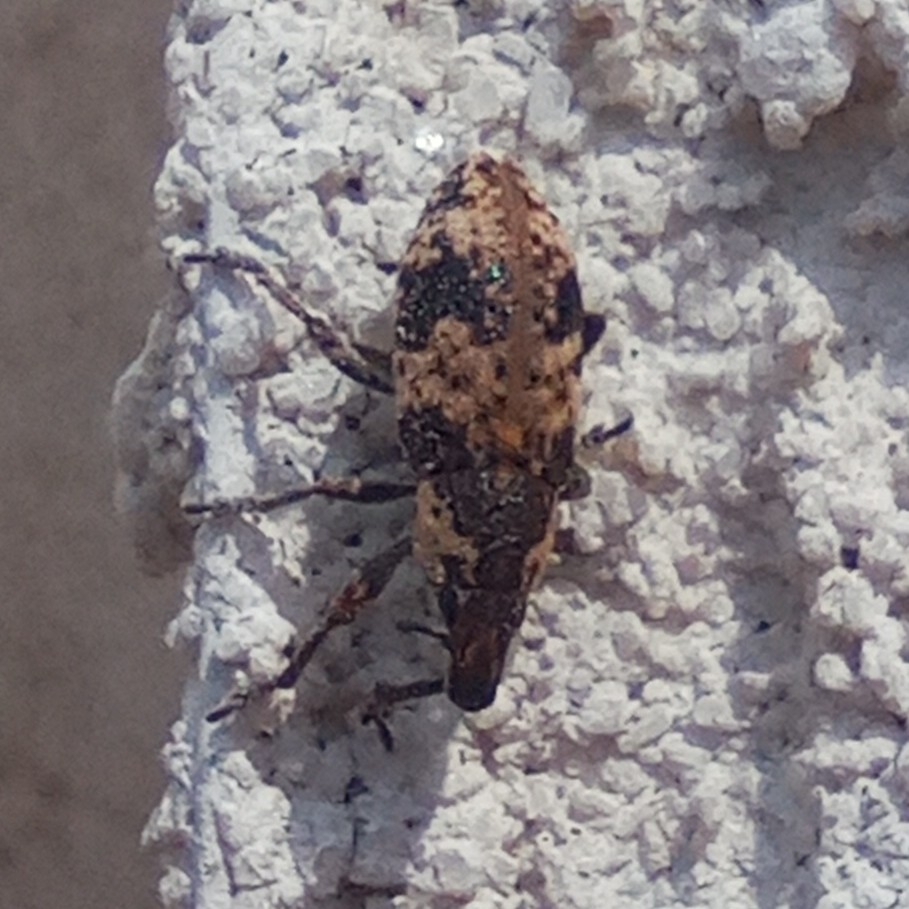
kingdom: Animalia
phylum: Arthropoda
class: Insecta
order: Coleoptera
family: Curculionidae
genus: Bothynoderes
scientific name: Bothynoderes affinis
